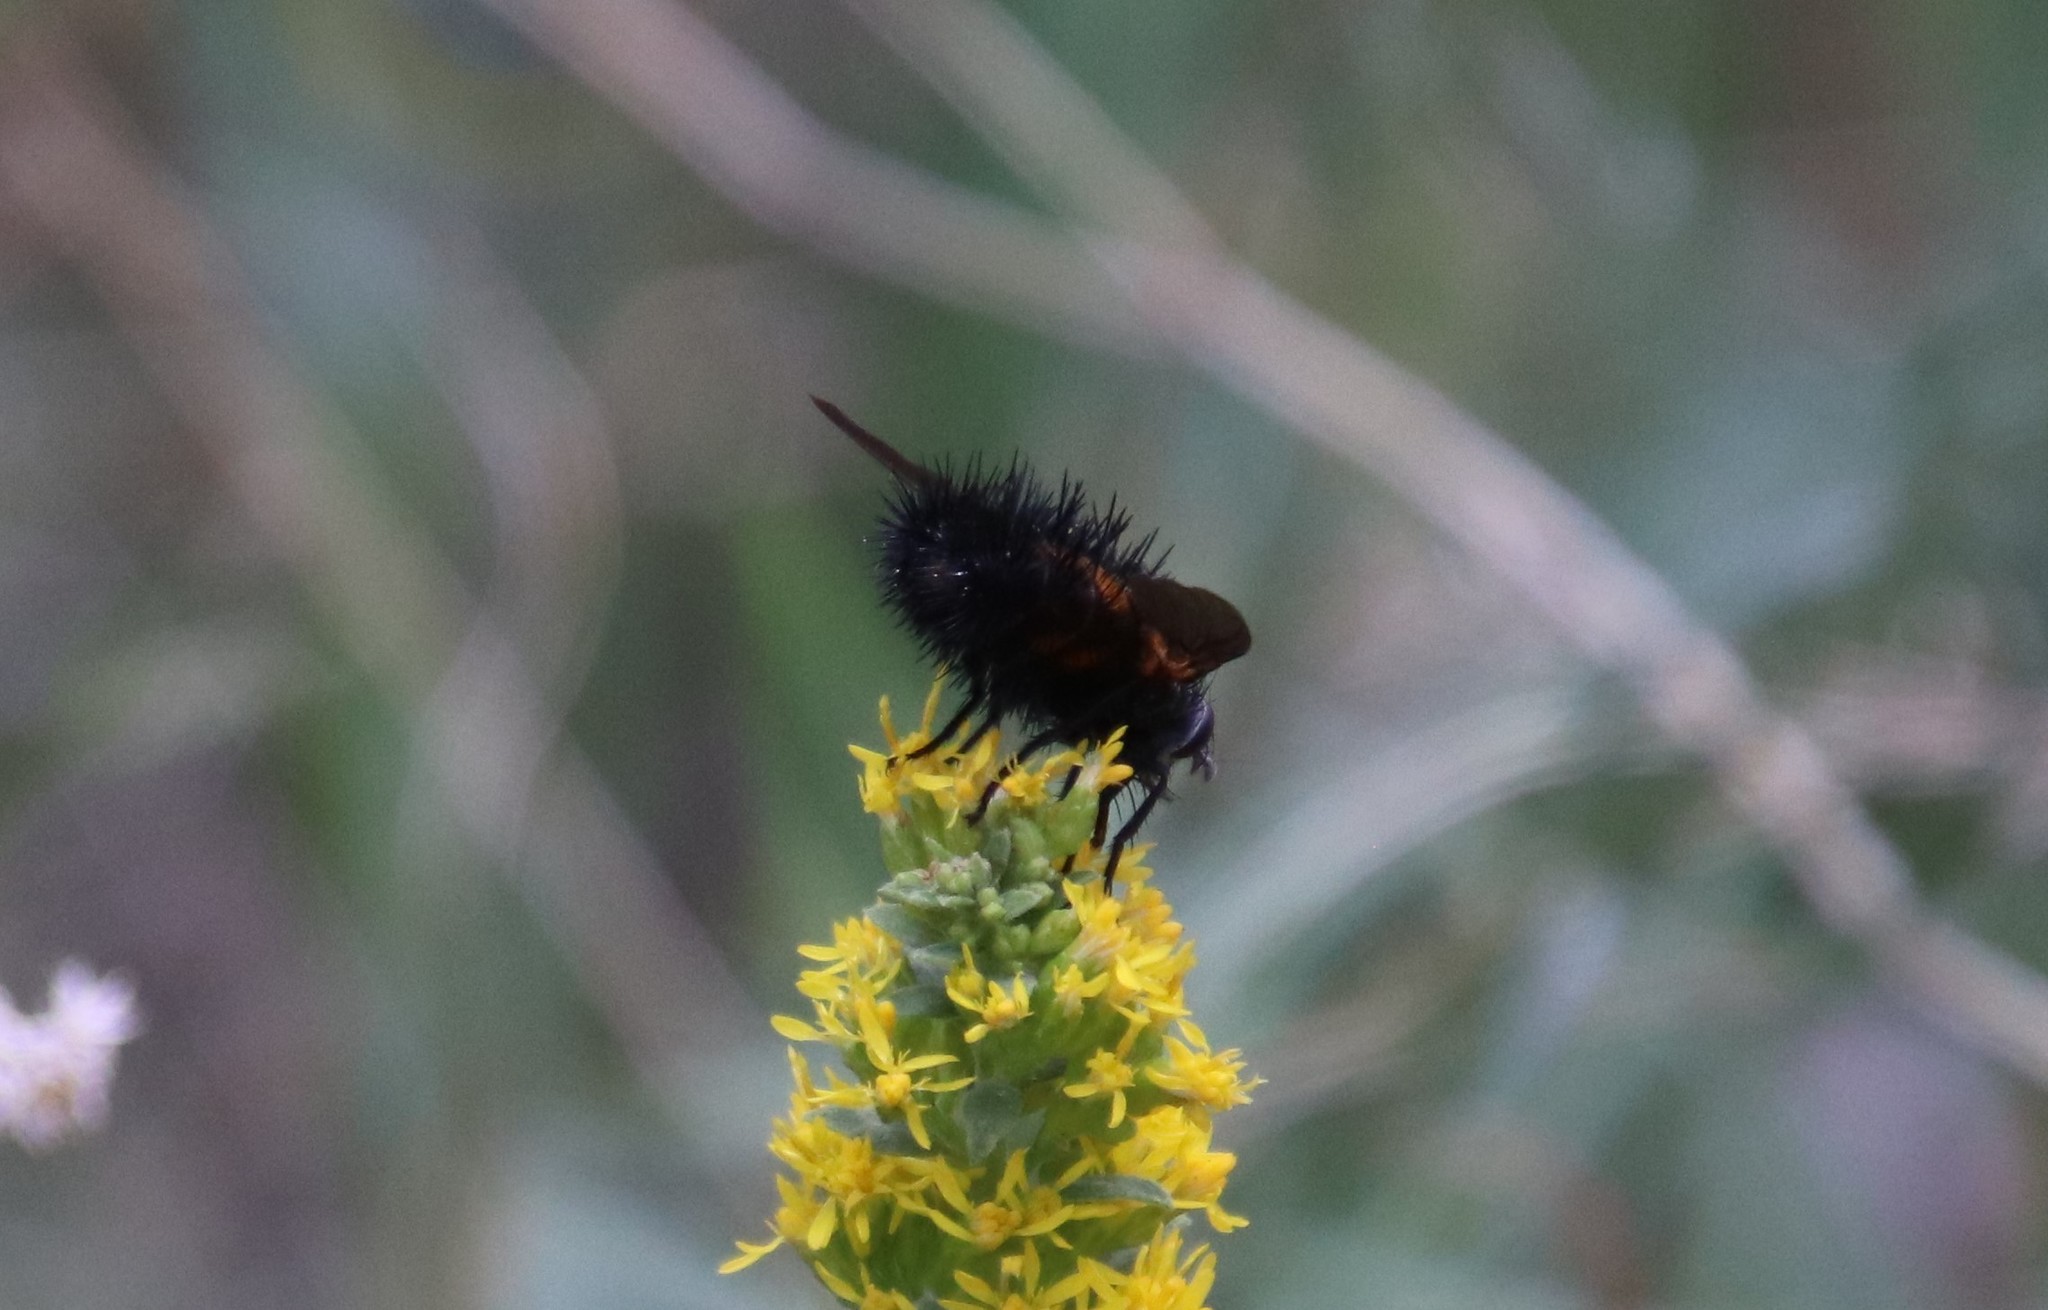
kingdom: Animalia
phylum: Arthropoda
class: Insecta
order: Diptera
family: Tachinidae
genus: Paradejeania
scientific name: Paradejeania rutilioides
